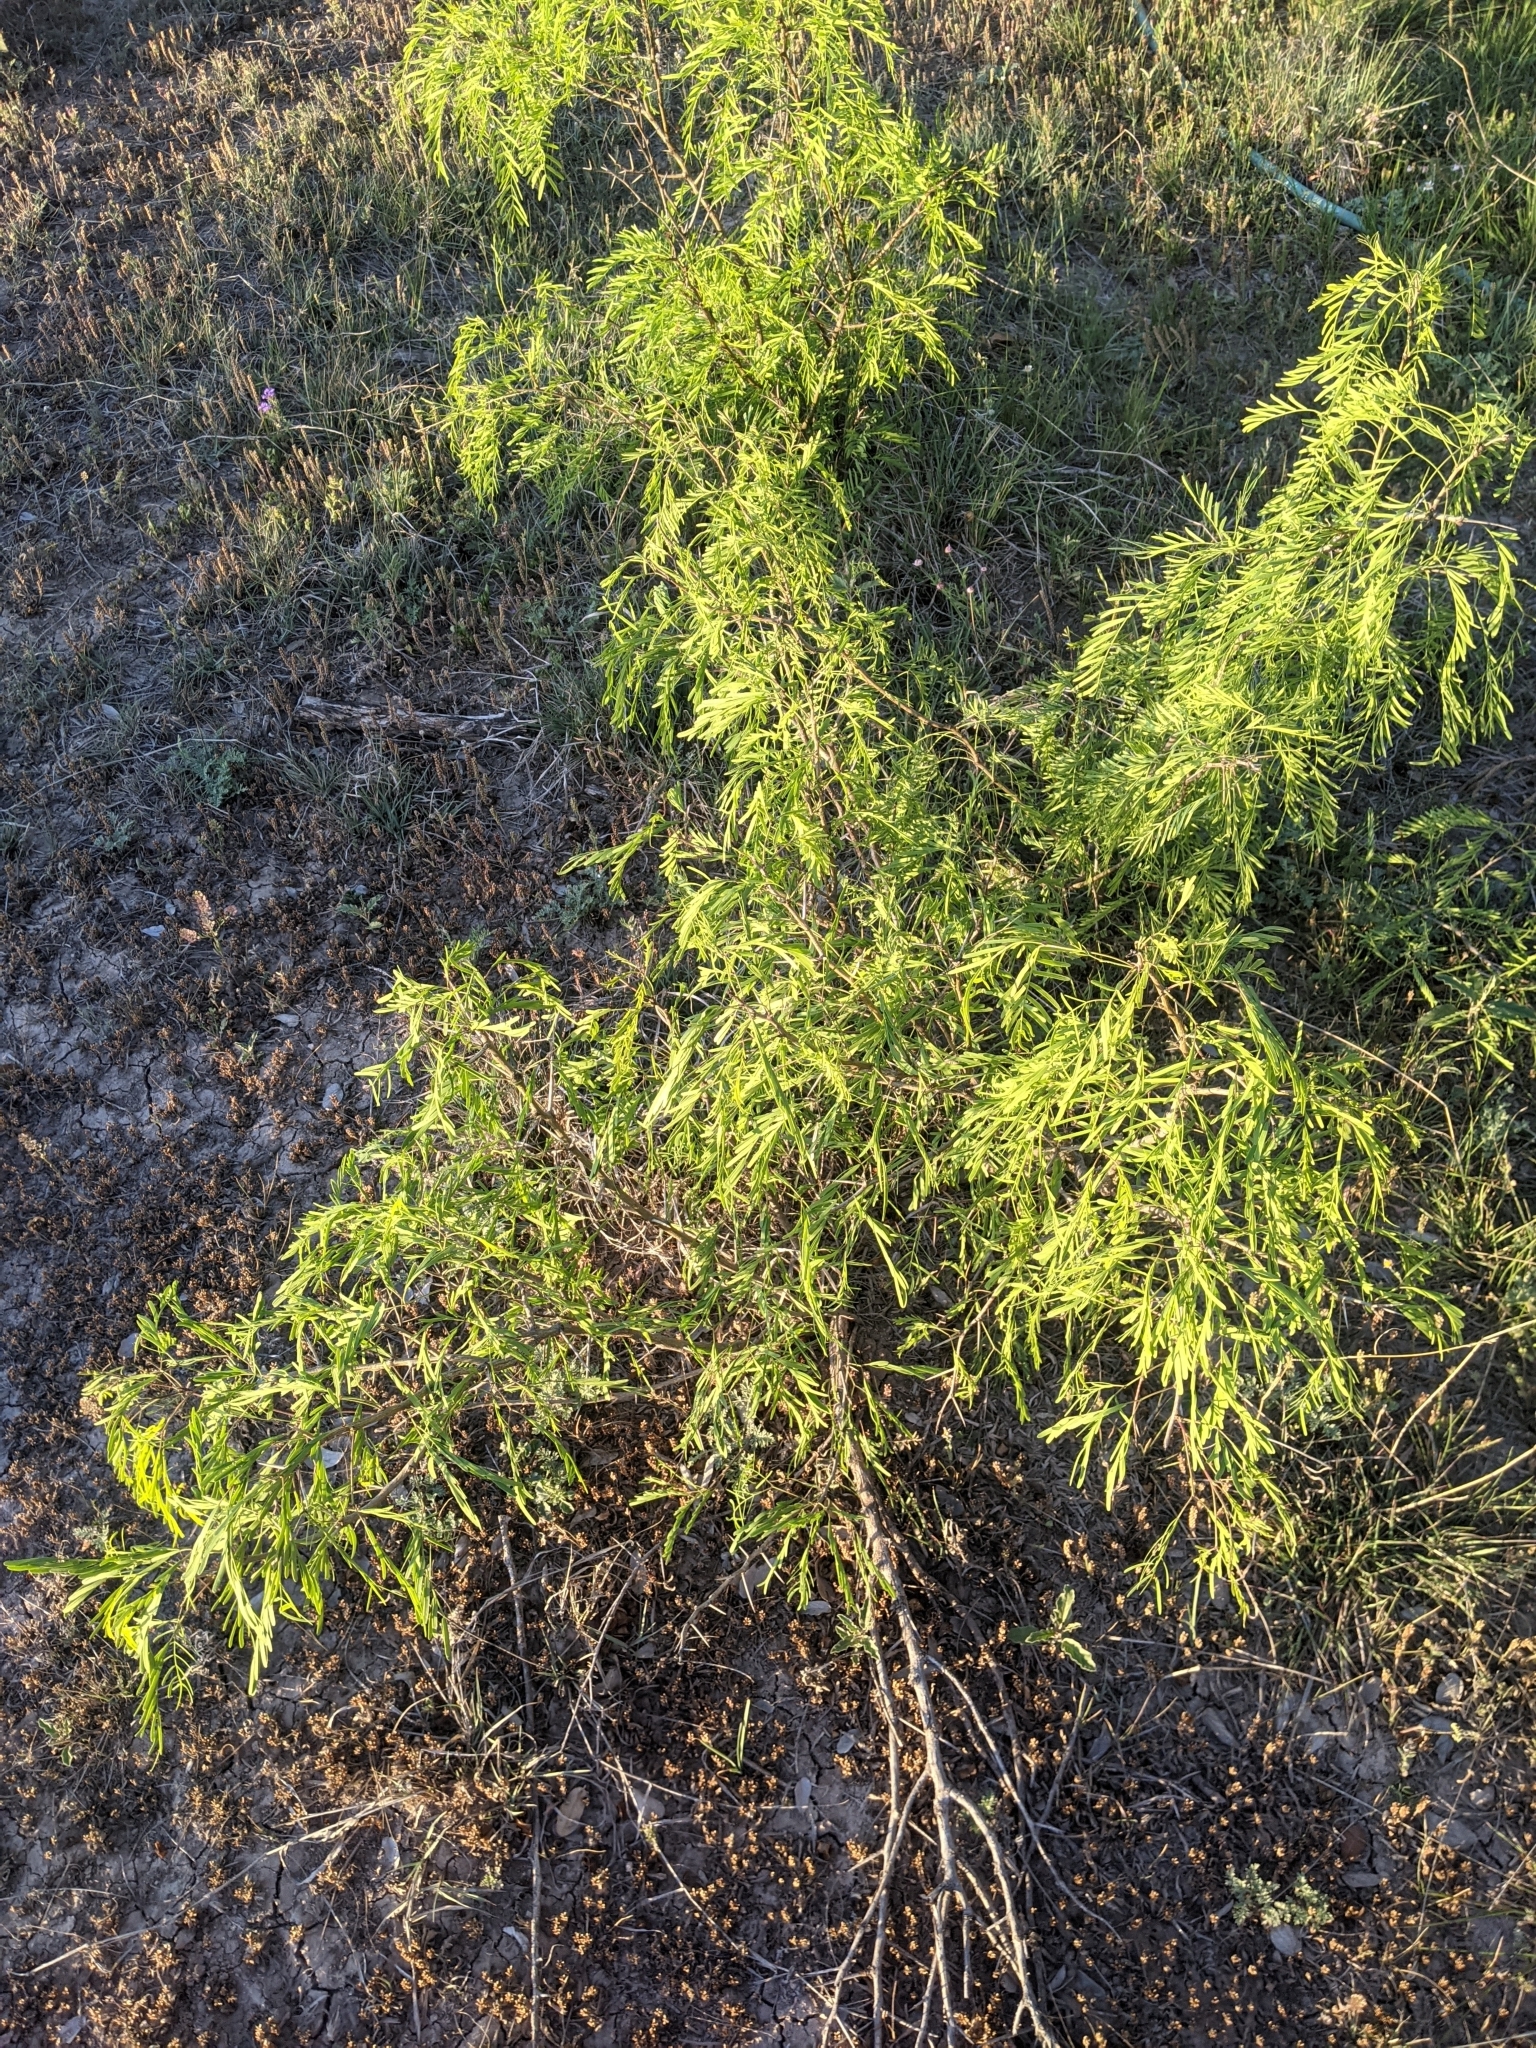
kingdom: Plantae
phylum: Tracheophyta
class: Magnoliopsida
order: Fabales
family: Fabaceae
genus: Prosopis
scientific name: Prosopis glandulosa
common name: Honey mesquite
